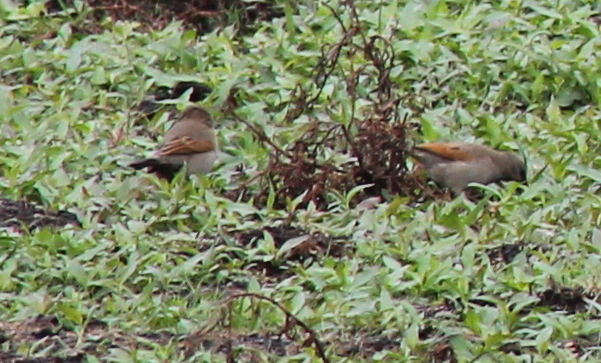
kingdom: Animalia
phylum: Chordata
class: Aves
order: Passeriformes
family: Icteridae
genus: Agelaioides
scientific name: Agelaioides badius
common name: Baywing
